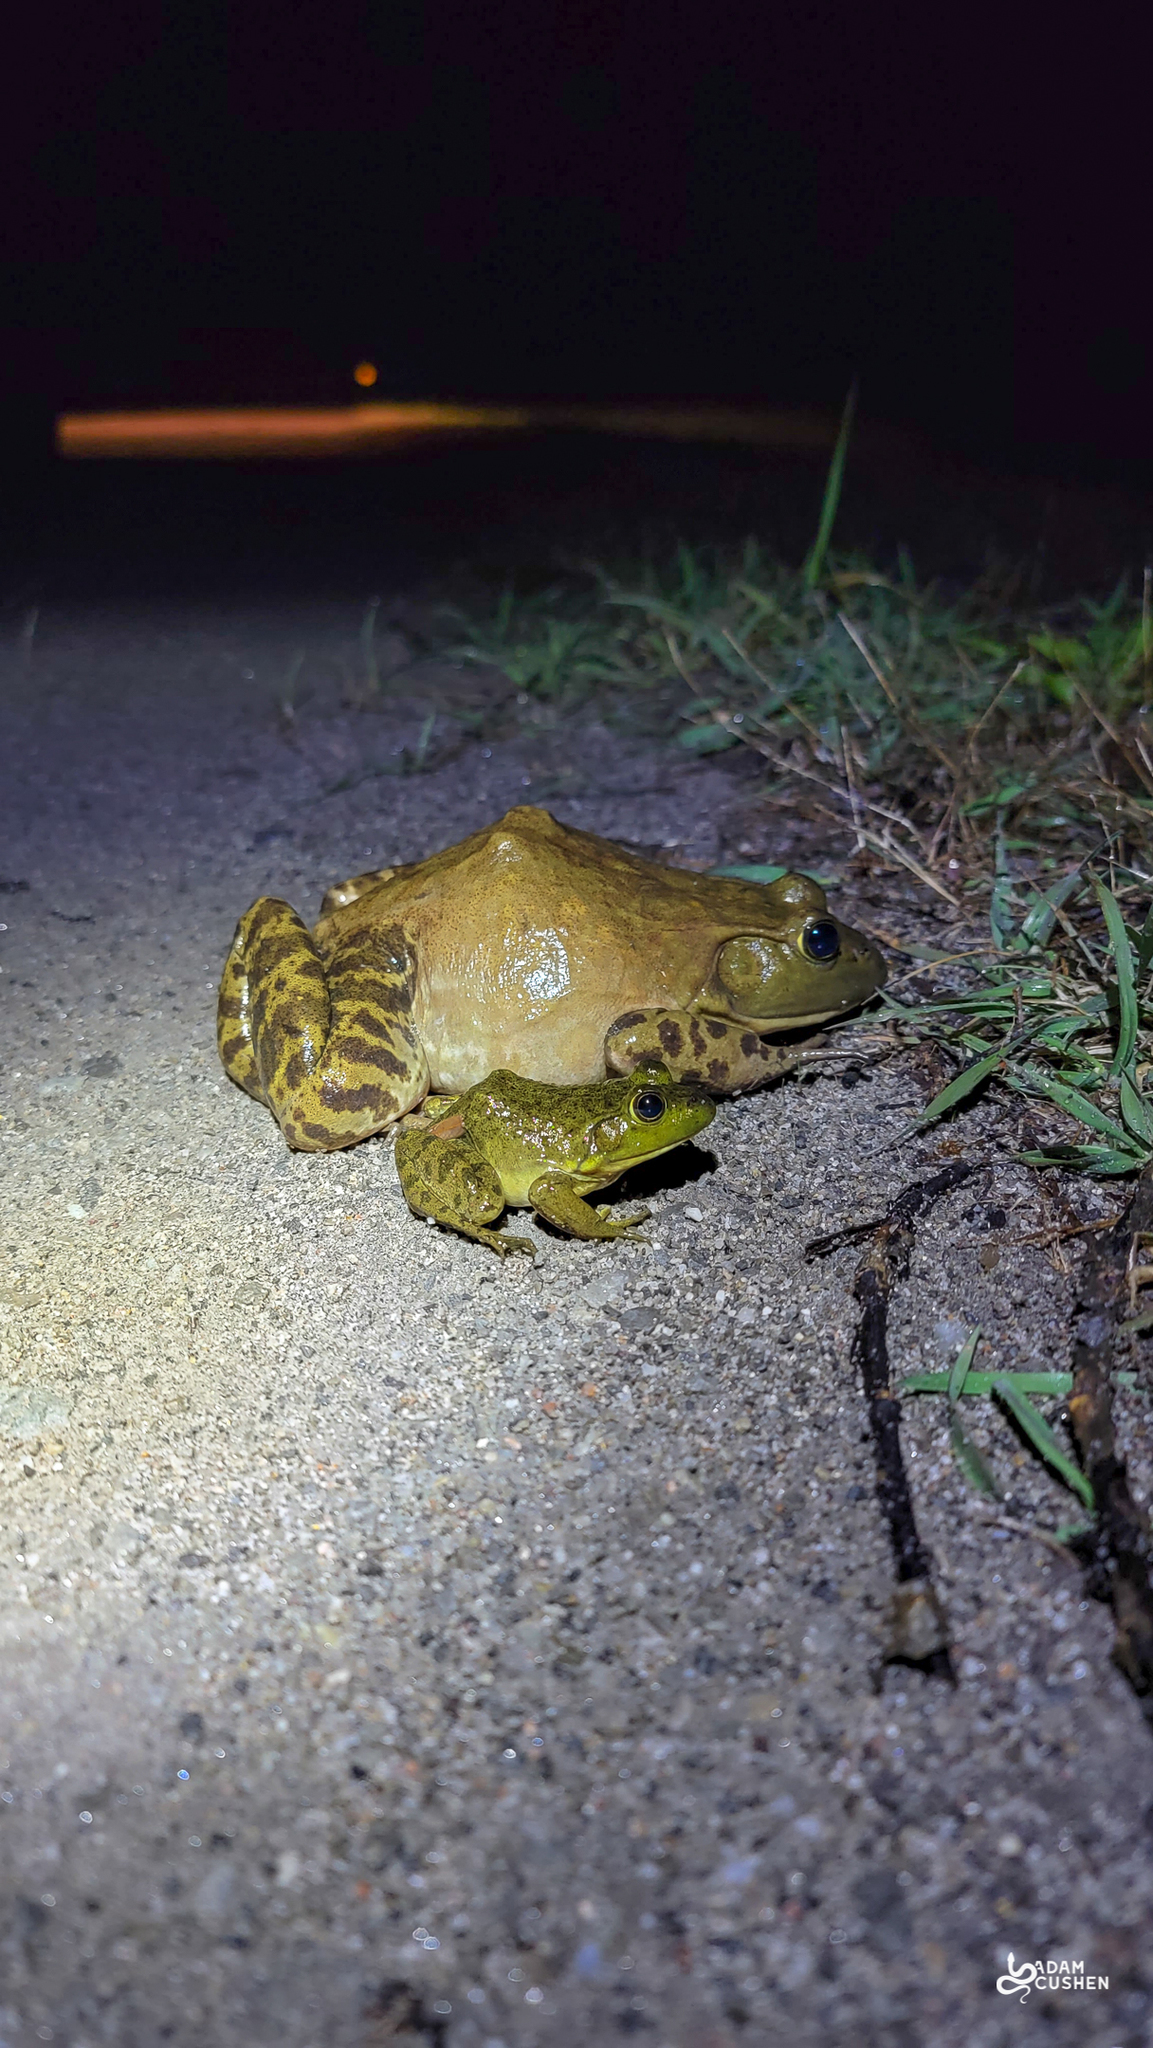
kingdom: Animalia
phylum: Chordata
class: Amphibia
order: Anura
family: Ranidae
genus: Lithobates
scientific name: Lithobates catesbeianus
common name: American bullfrog
